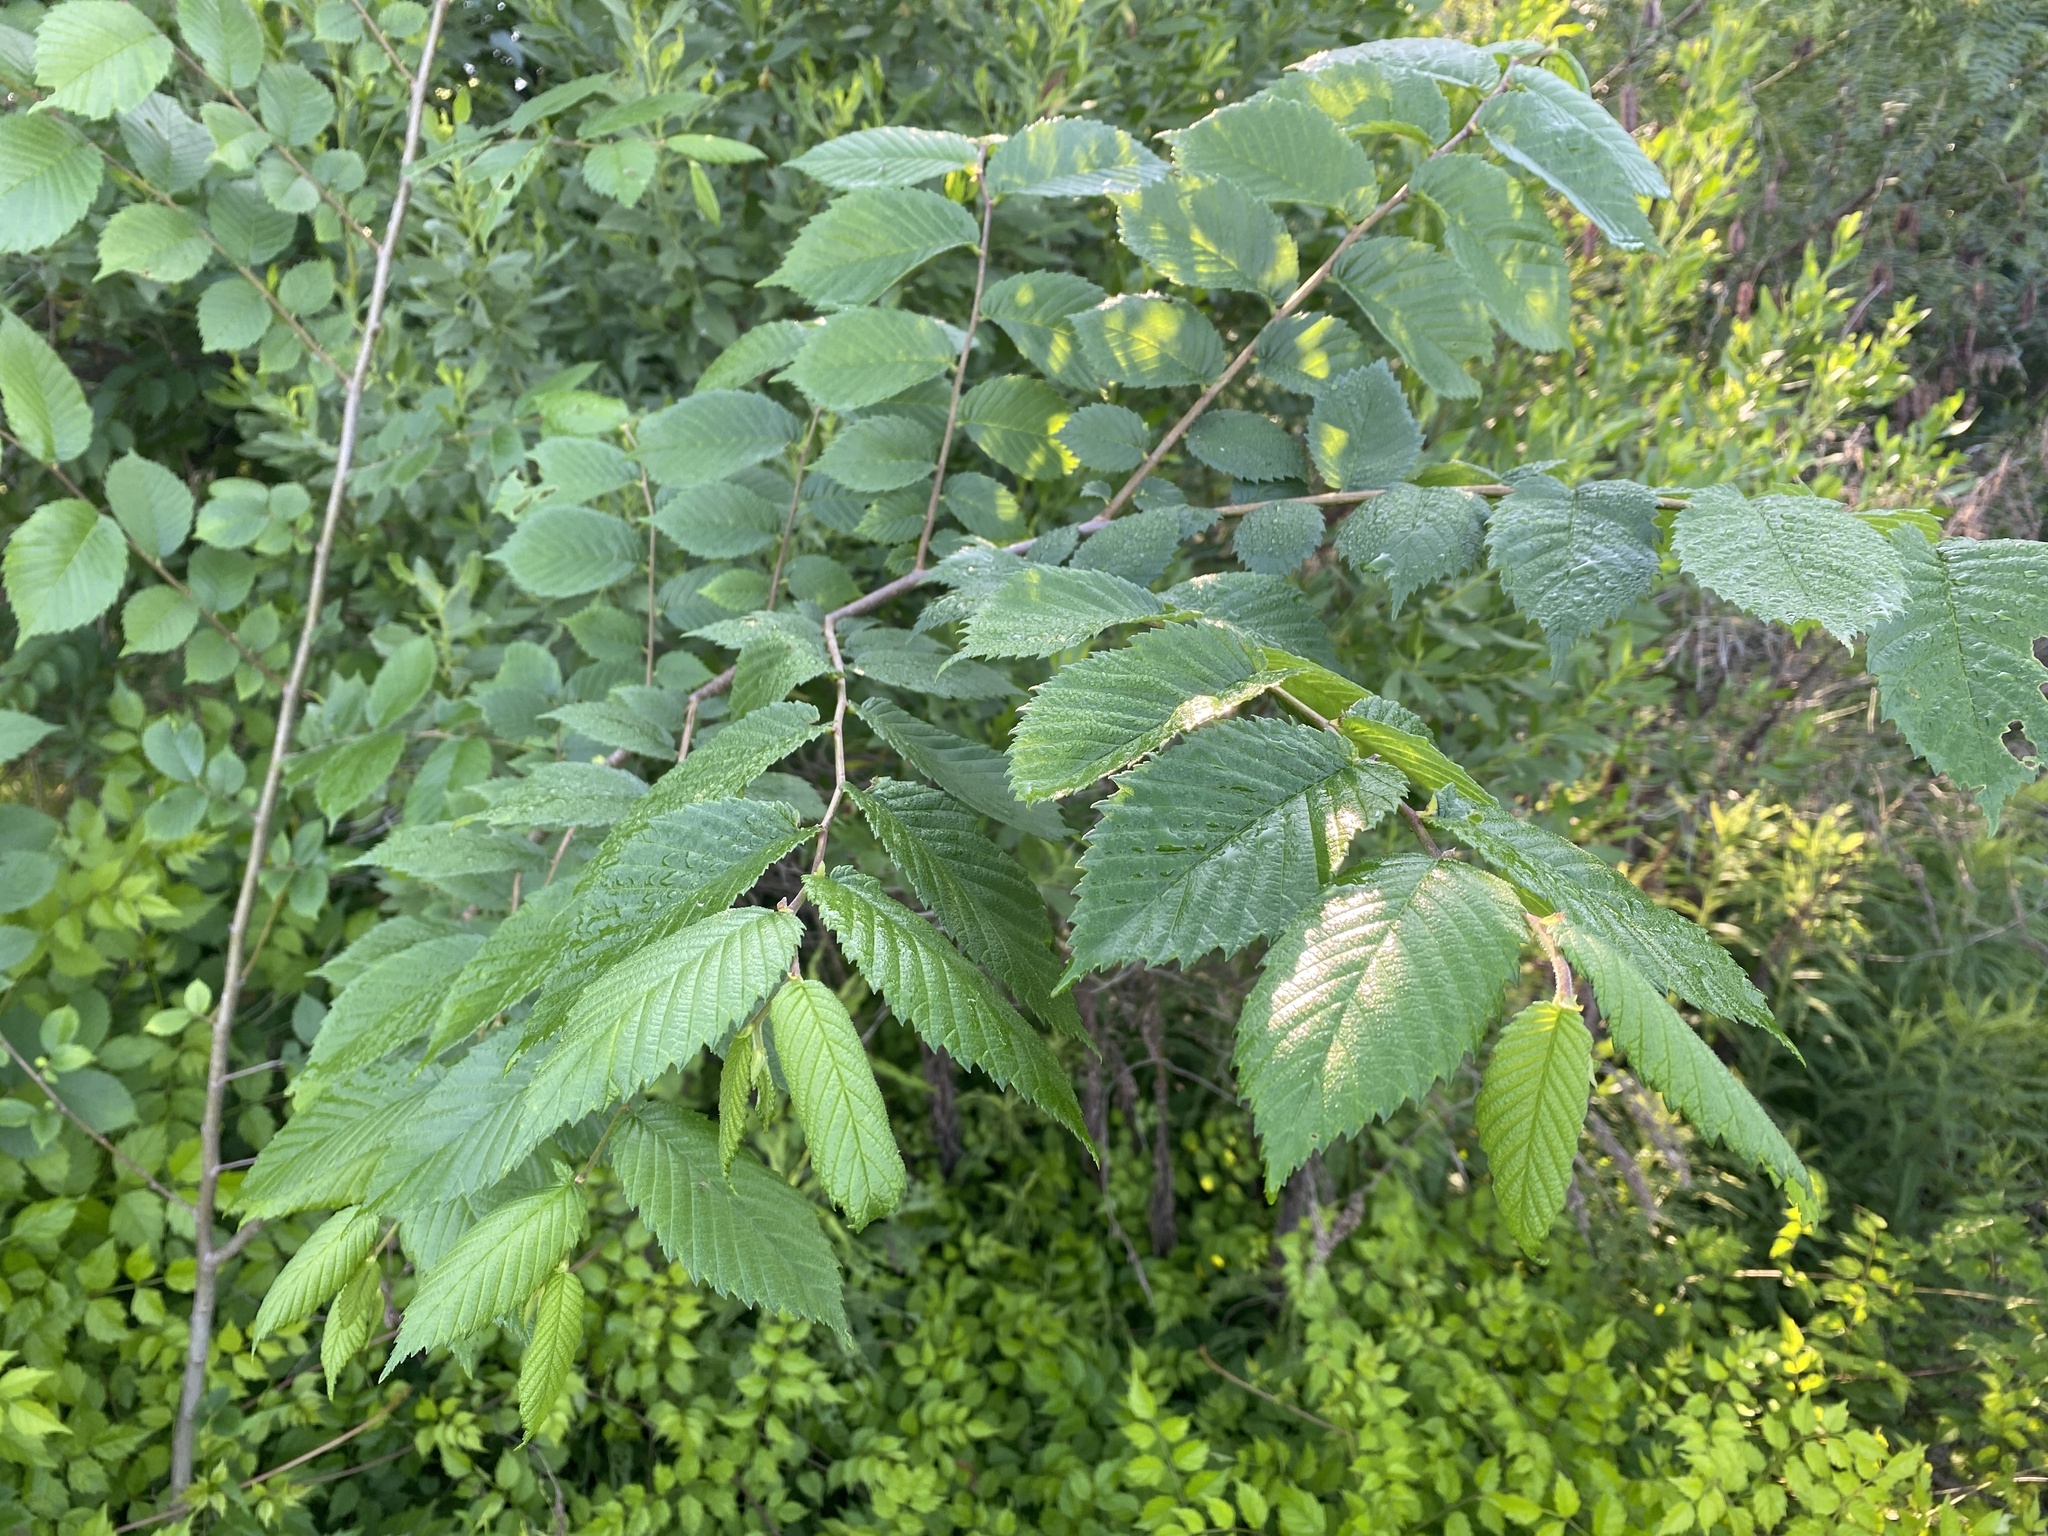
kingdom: Plantae
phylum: Tracheophyta
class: Magnoliopsida
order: Rosales
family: Ulmaceae
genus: Ulmus
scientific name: Ulmus americana
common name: American elm
